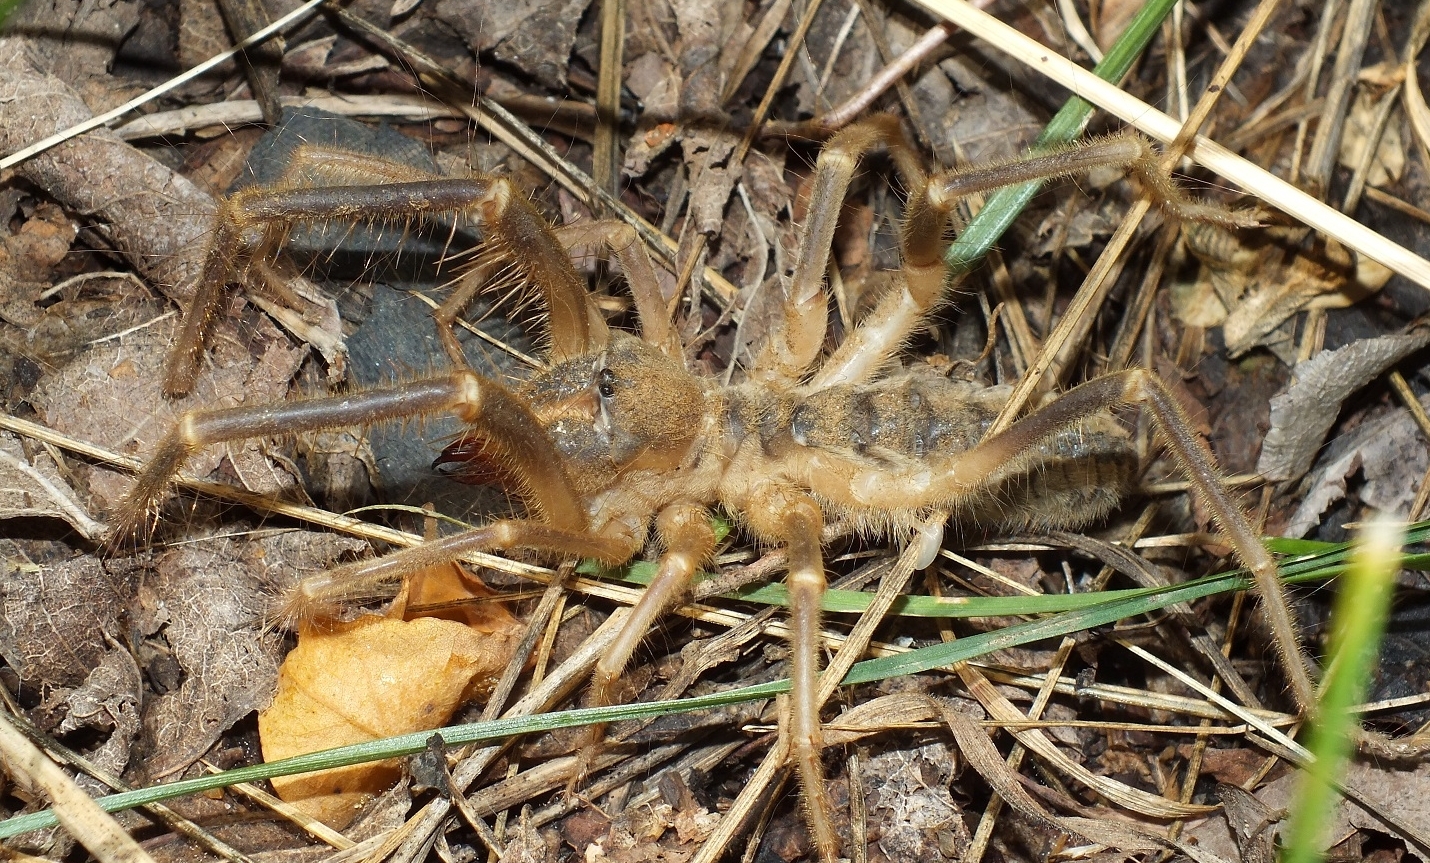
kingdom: Animalia
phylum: Arthropoda
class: Arachnida
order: Solifugae
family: Galeodidae
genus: Galeodes
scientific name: Galeodes araneoides
